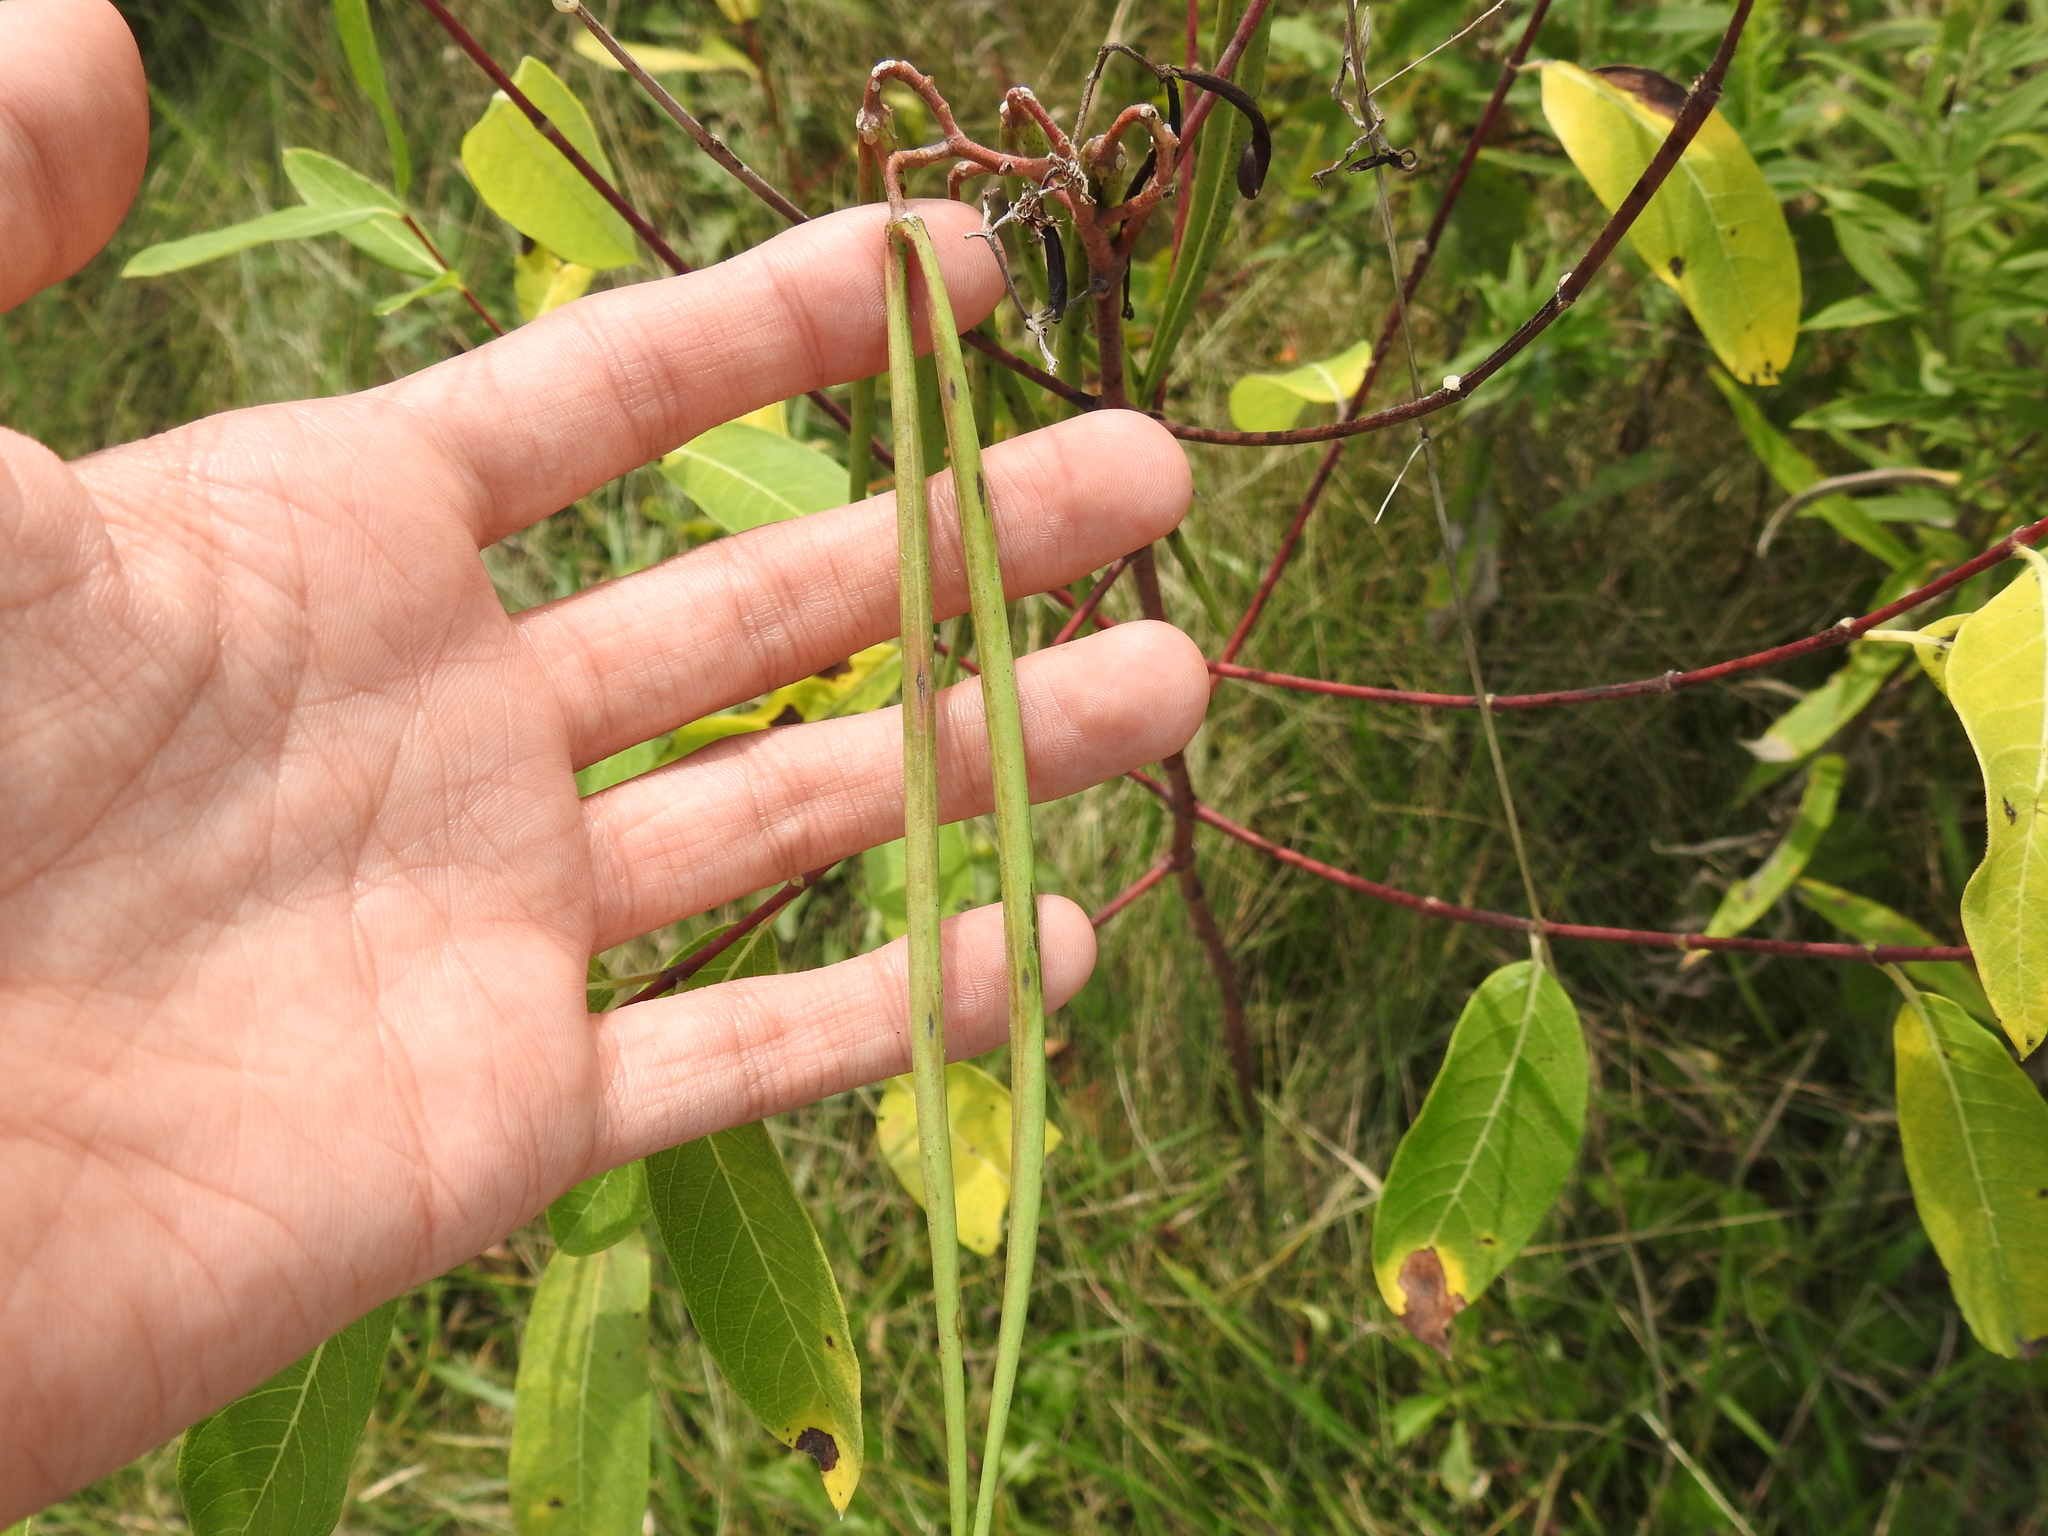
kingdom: Plantae
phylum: Tracheophyta
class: Magnoliopsida
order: Gentianales
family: Apocynaceae
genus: Apocynum
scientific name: Apocynum cannabinum
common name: Hemp dogbane
